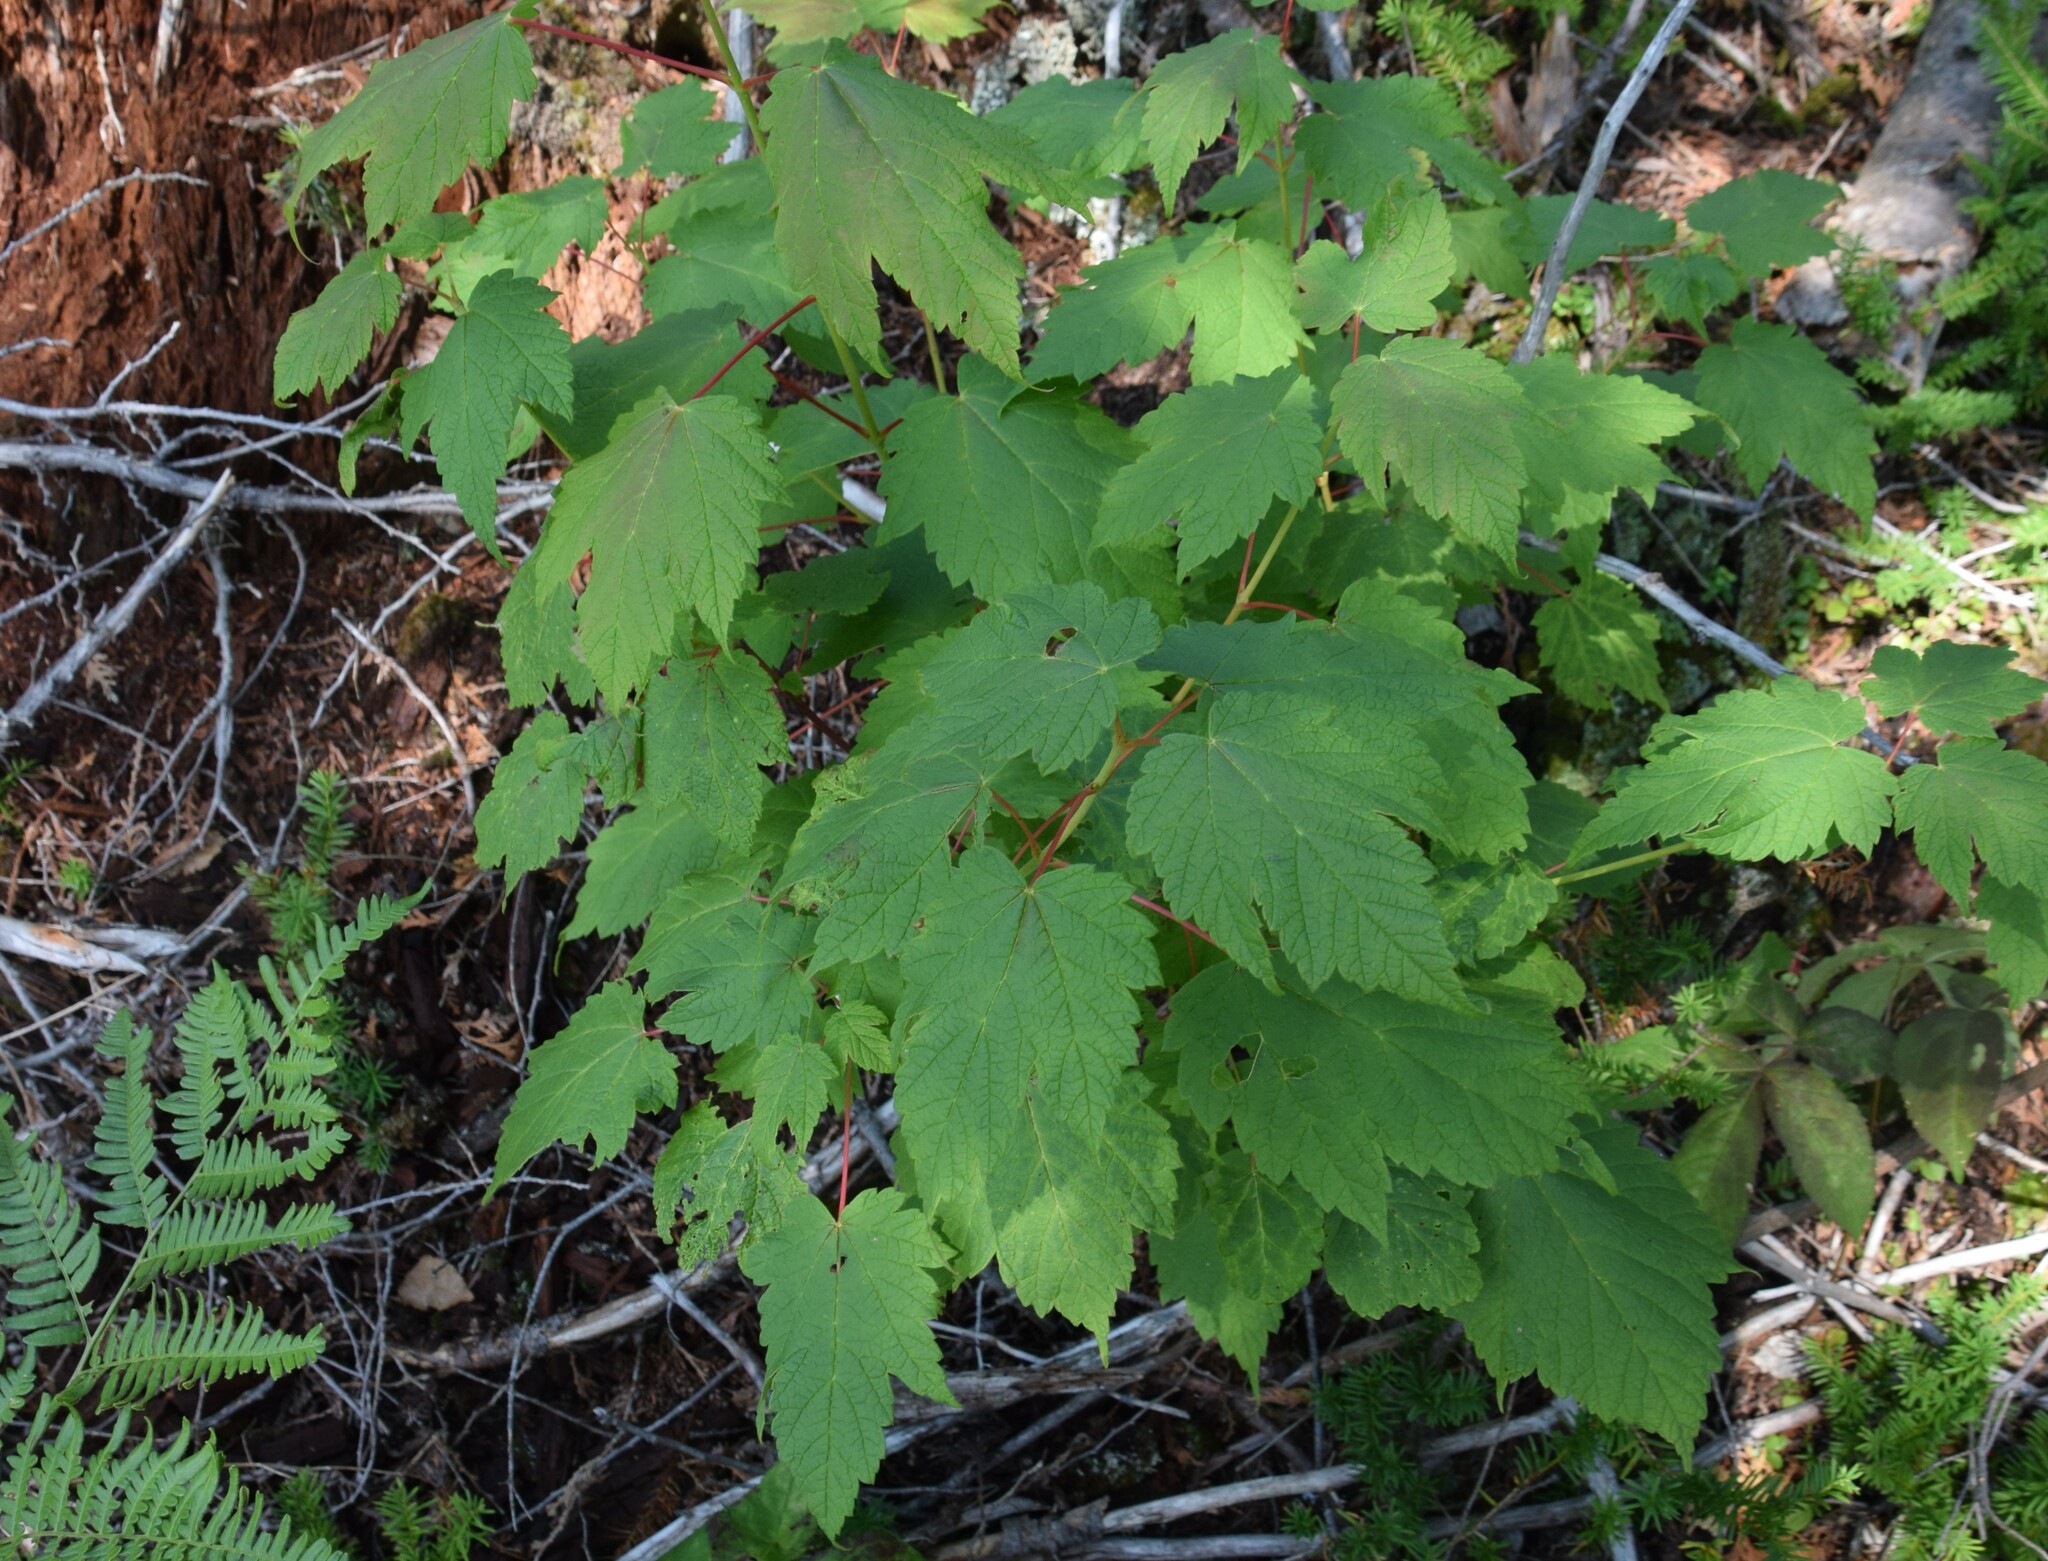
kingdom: Plantae
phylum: Tracheophyta
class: Magnoliopsida
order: Sapindales
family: Sapindaceae
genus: Acer
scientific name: Acer spicatum
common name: Mountain maple
